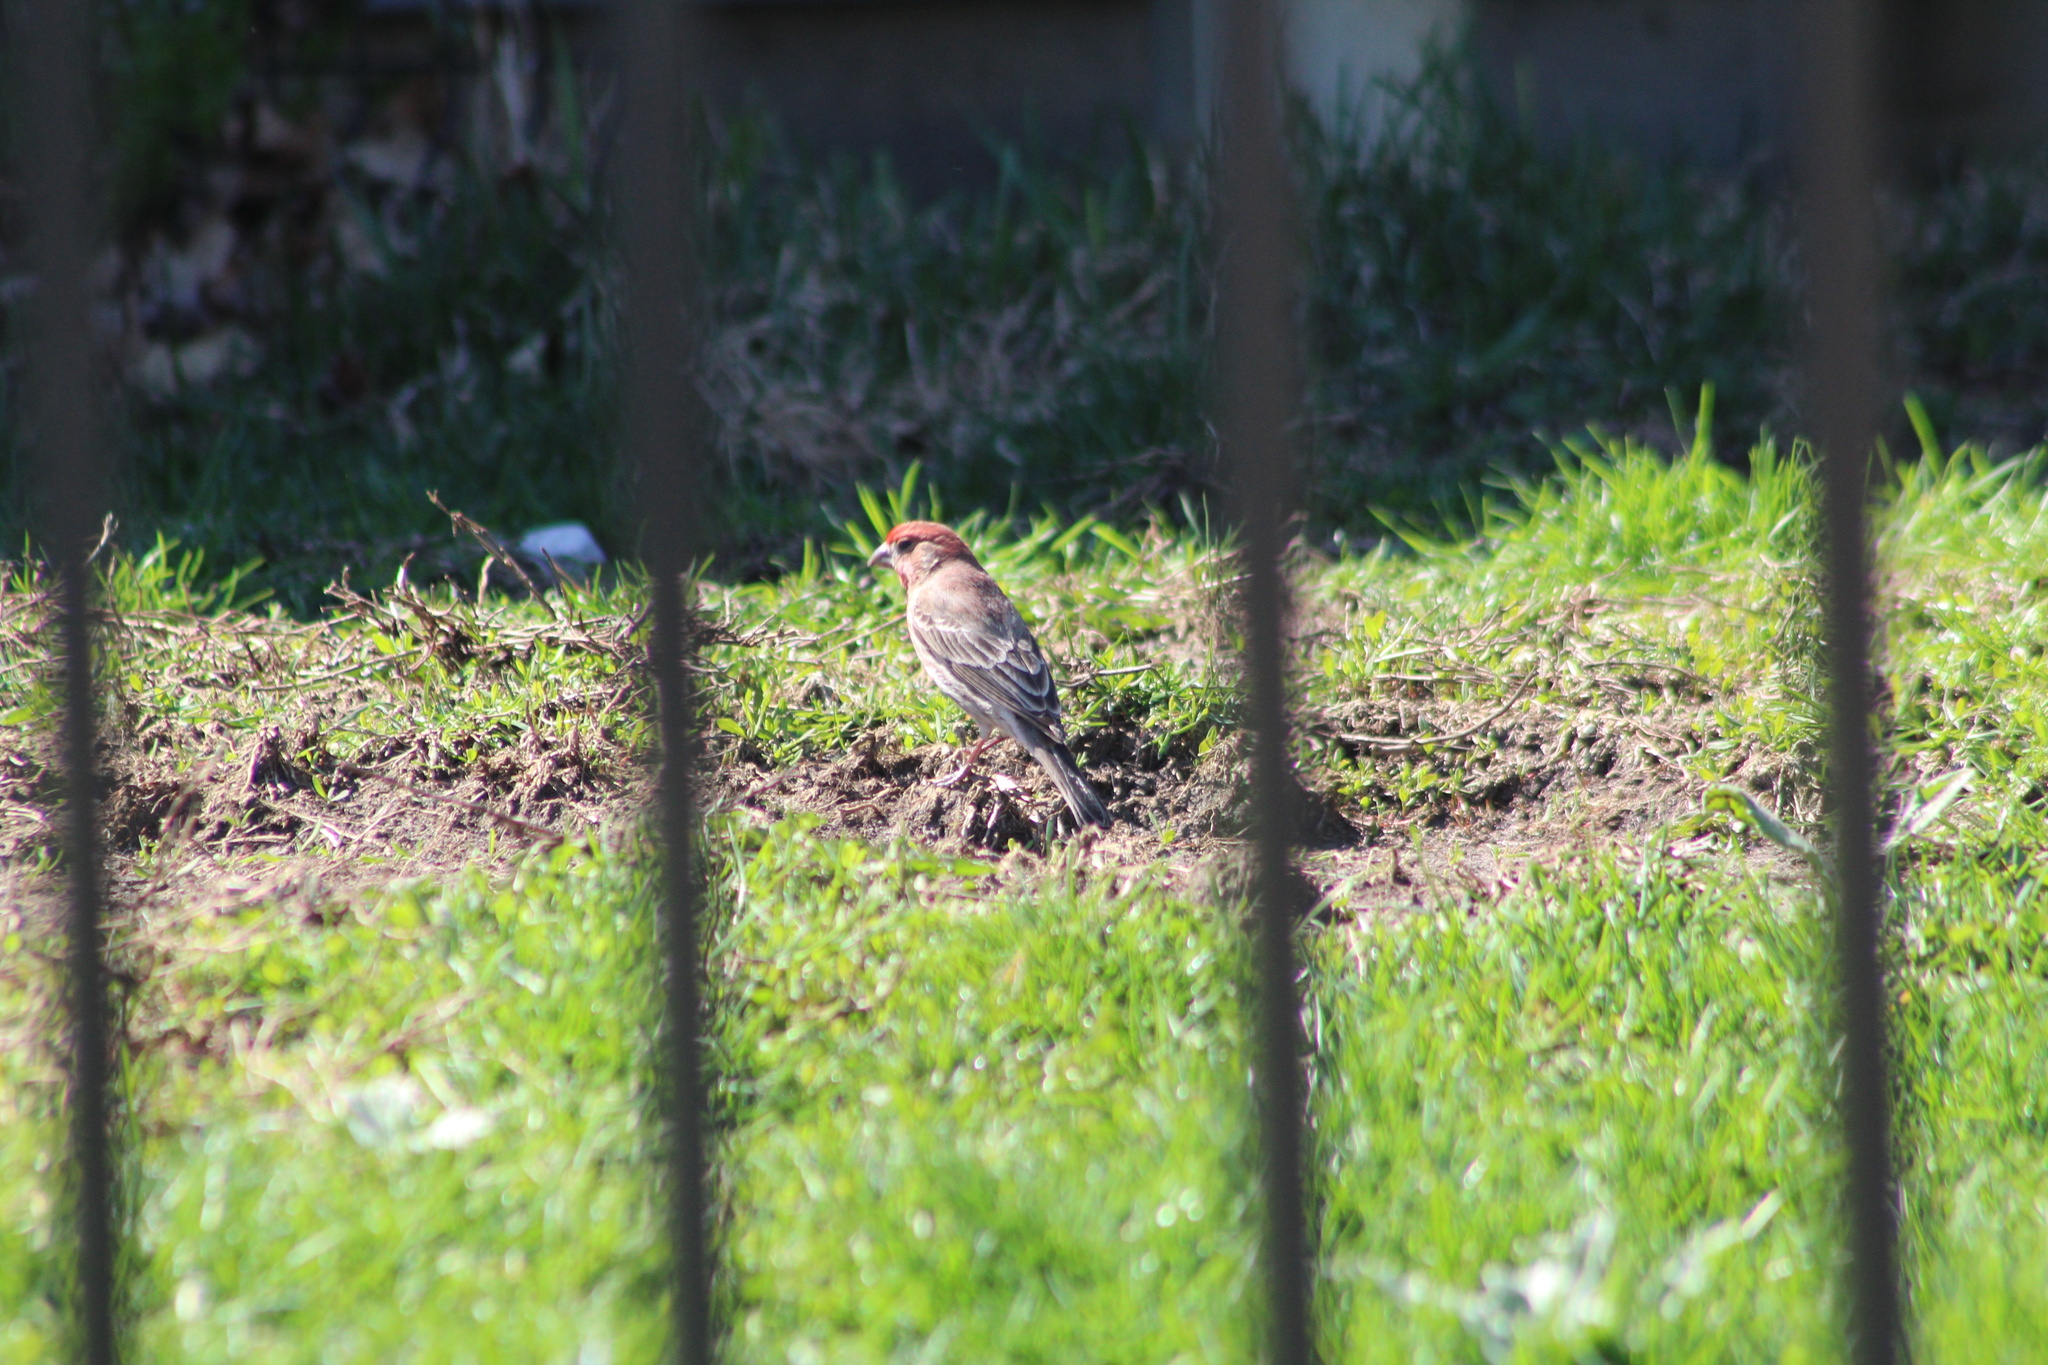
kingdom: Animalia
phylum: Chordata
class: Aves
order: Passeriformes
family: Fringillidae
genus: Haemorhous
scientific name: Haemorhous mexicanus
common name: House finch
